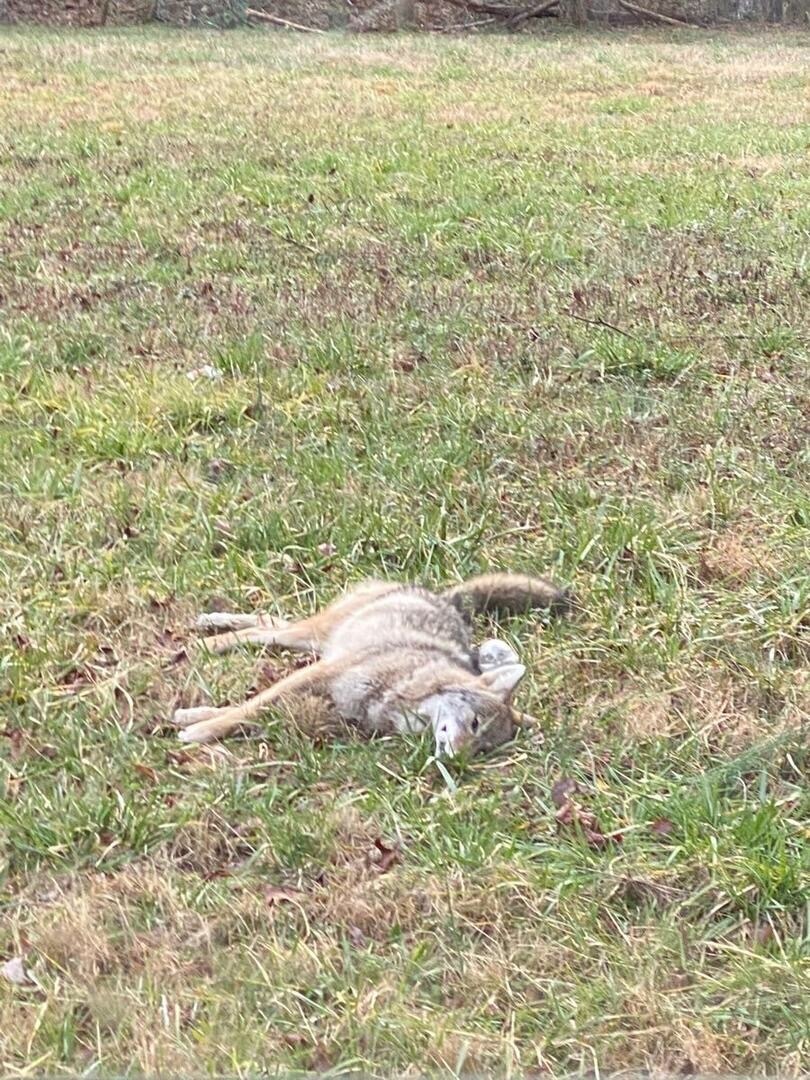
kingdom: Animalia
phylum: Chordata
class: Mammalia
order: Carnivora
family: Canidae
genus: Canis
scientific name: Canis latrans
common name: Coyote
